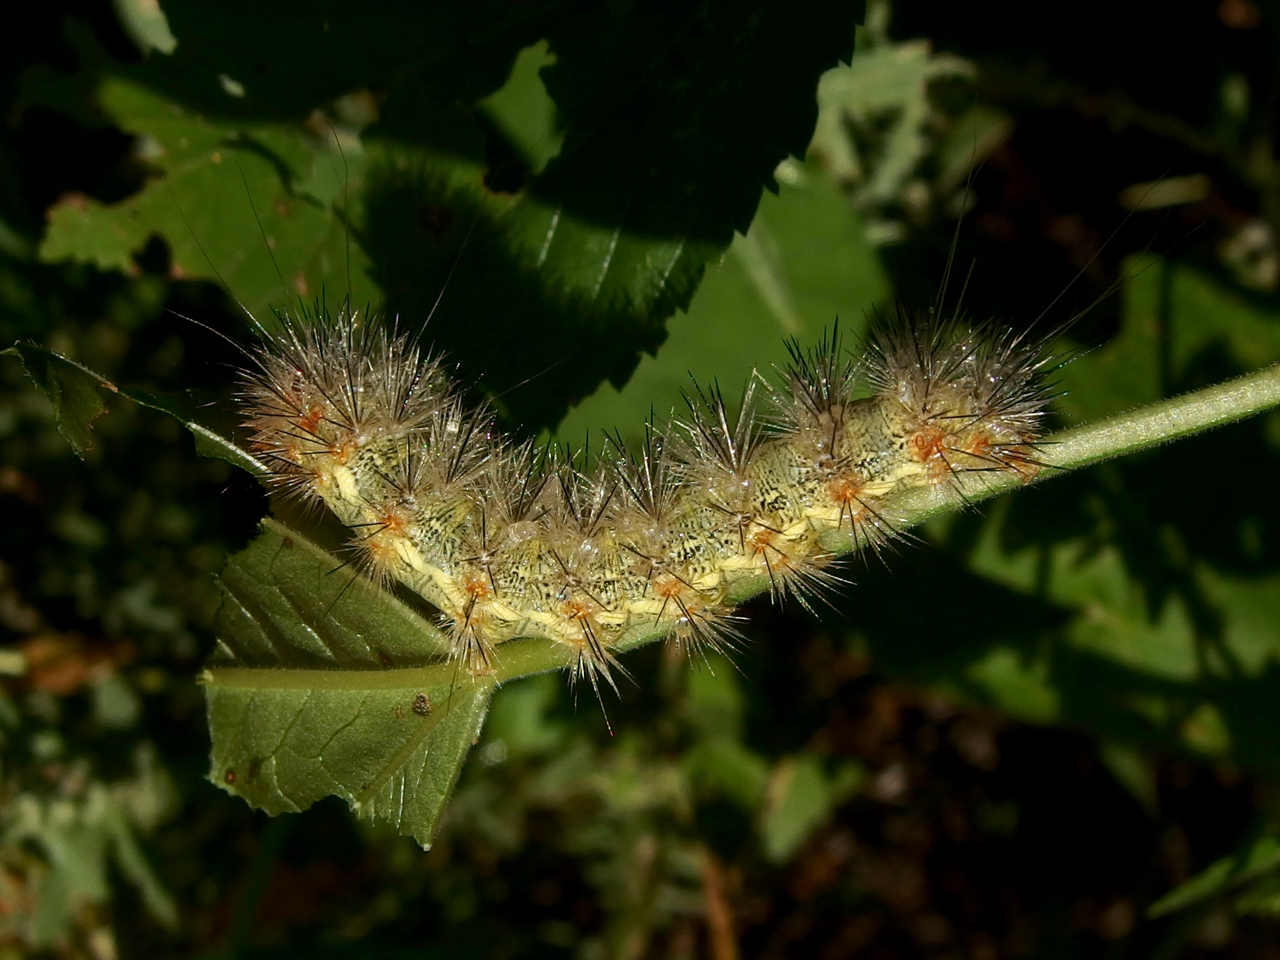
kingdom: Animalia
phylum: Arthropoda
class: Insecta
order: Lepidoptera
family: Erebidae
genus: Hypercompe
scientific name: Hypercompe suffusa
